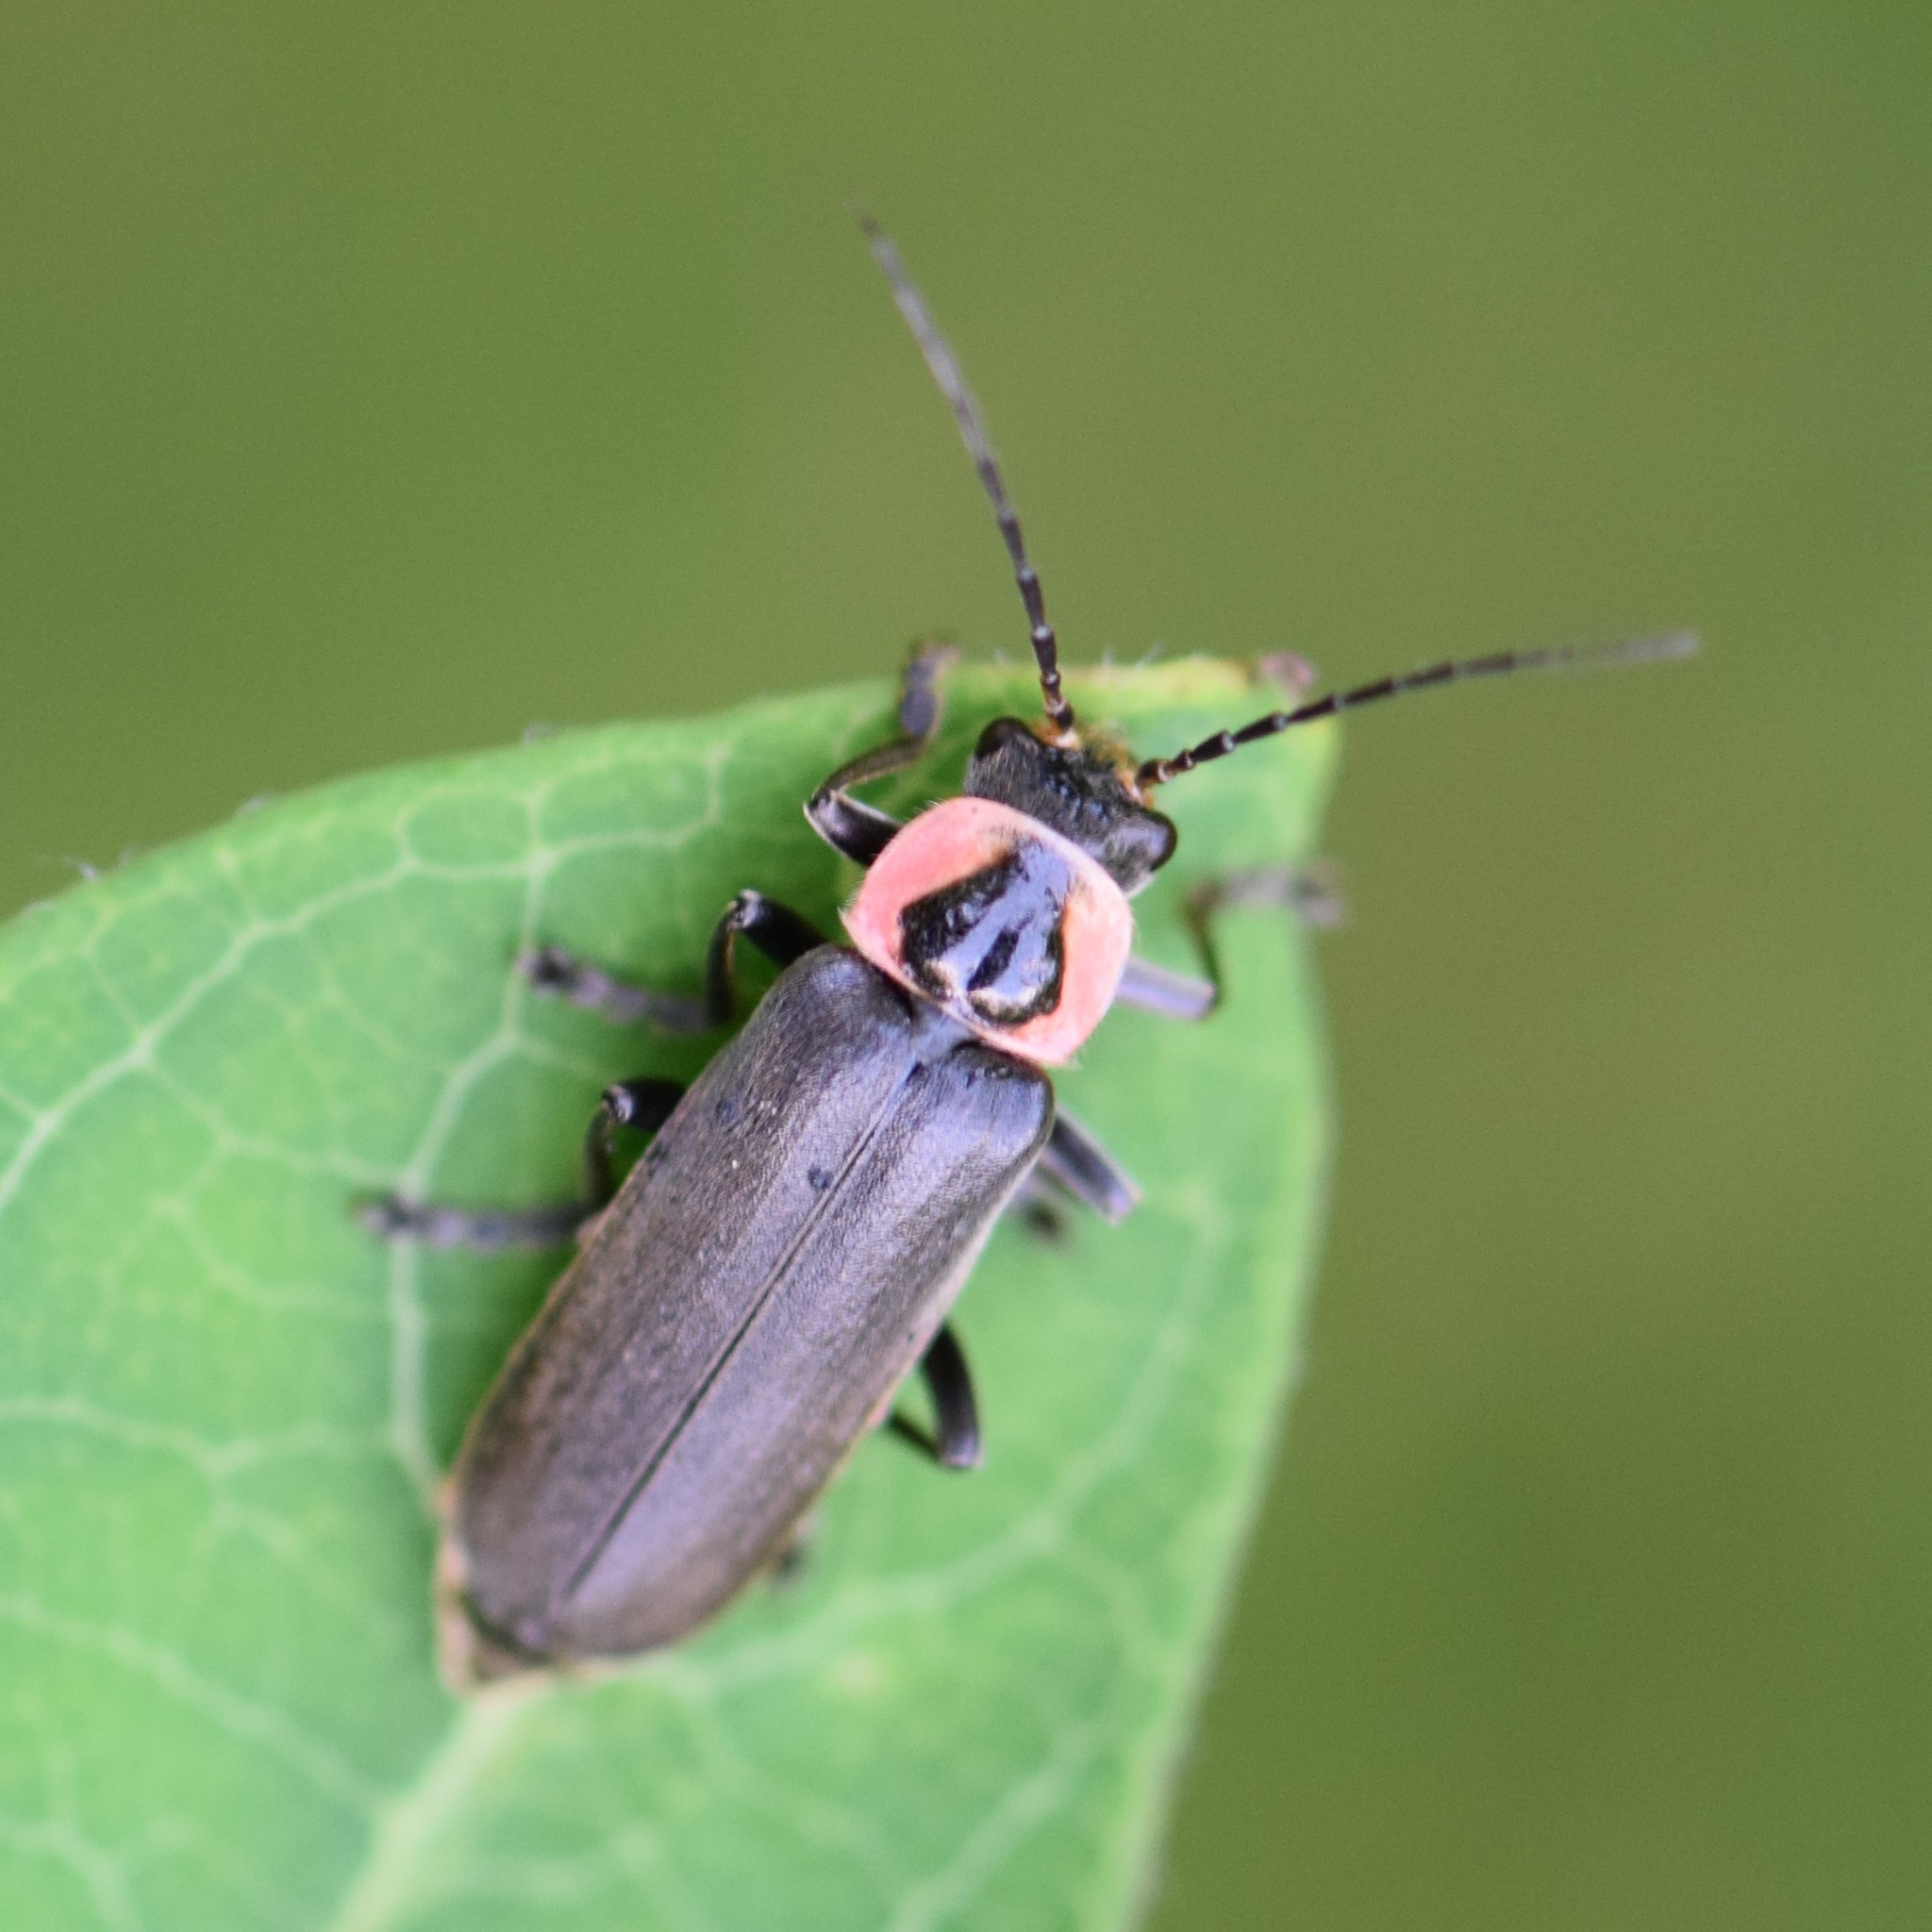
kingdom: Animalia
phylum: Arthropoda
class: Insecta
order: Coleoptera
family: Cantharidae
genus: Rhaxonycha
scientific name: Rhaxonycha carolina
